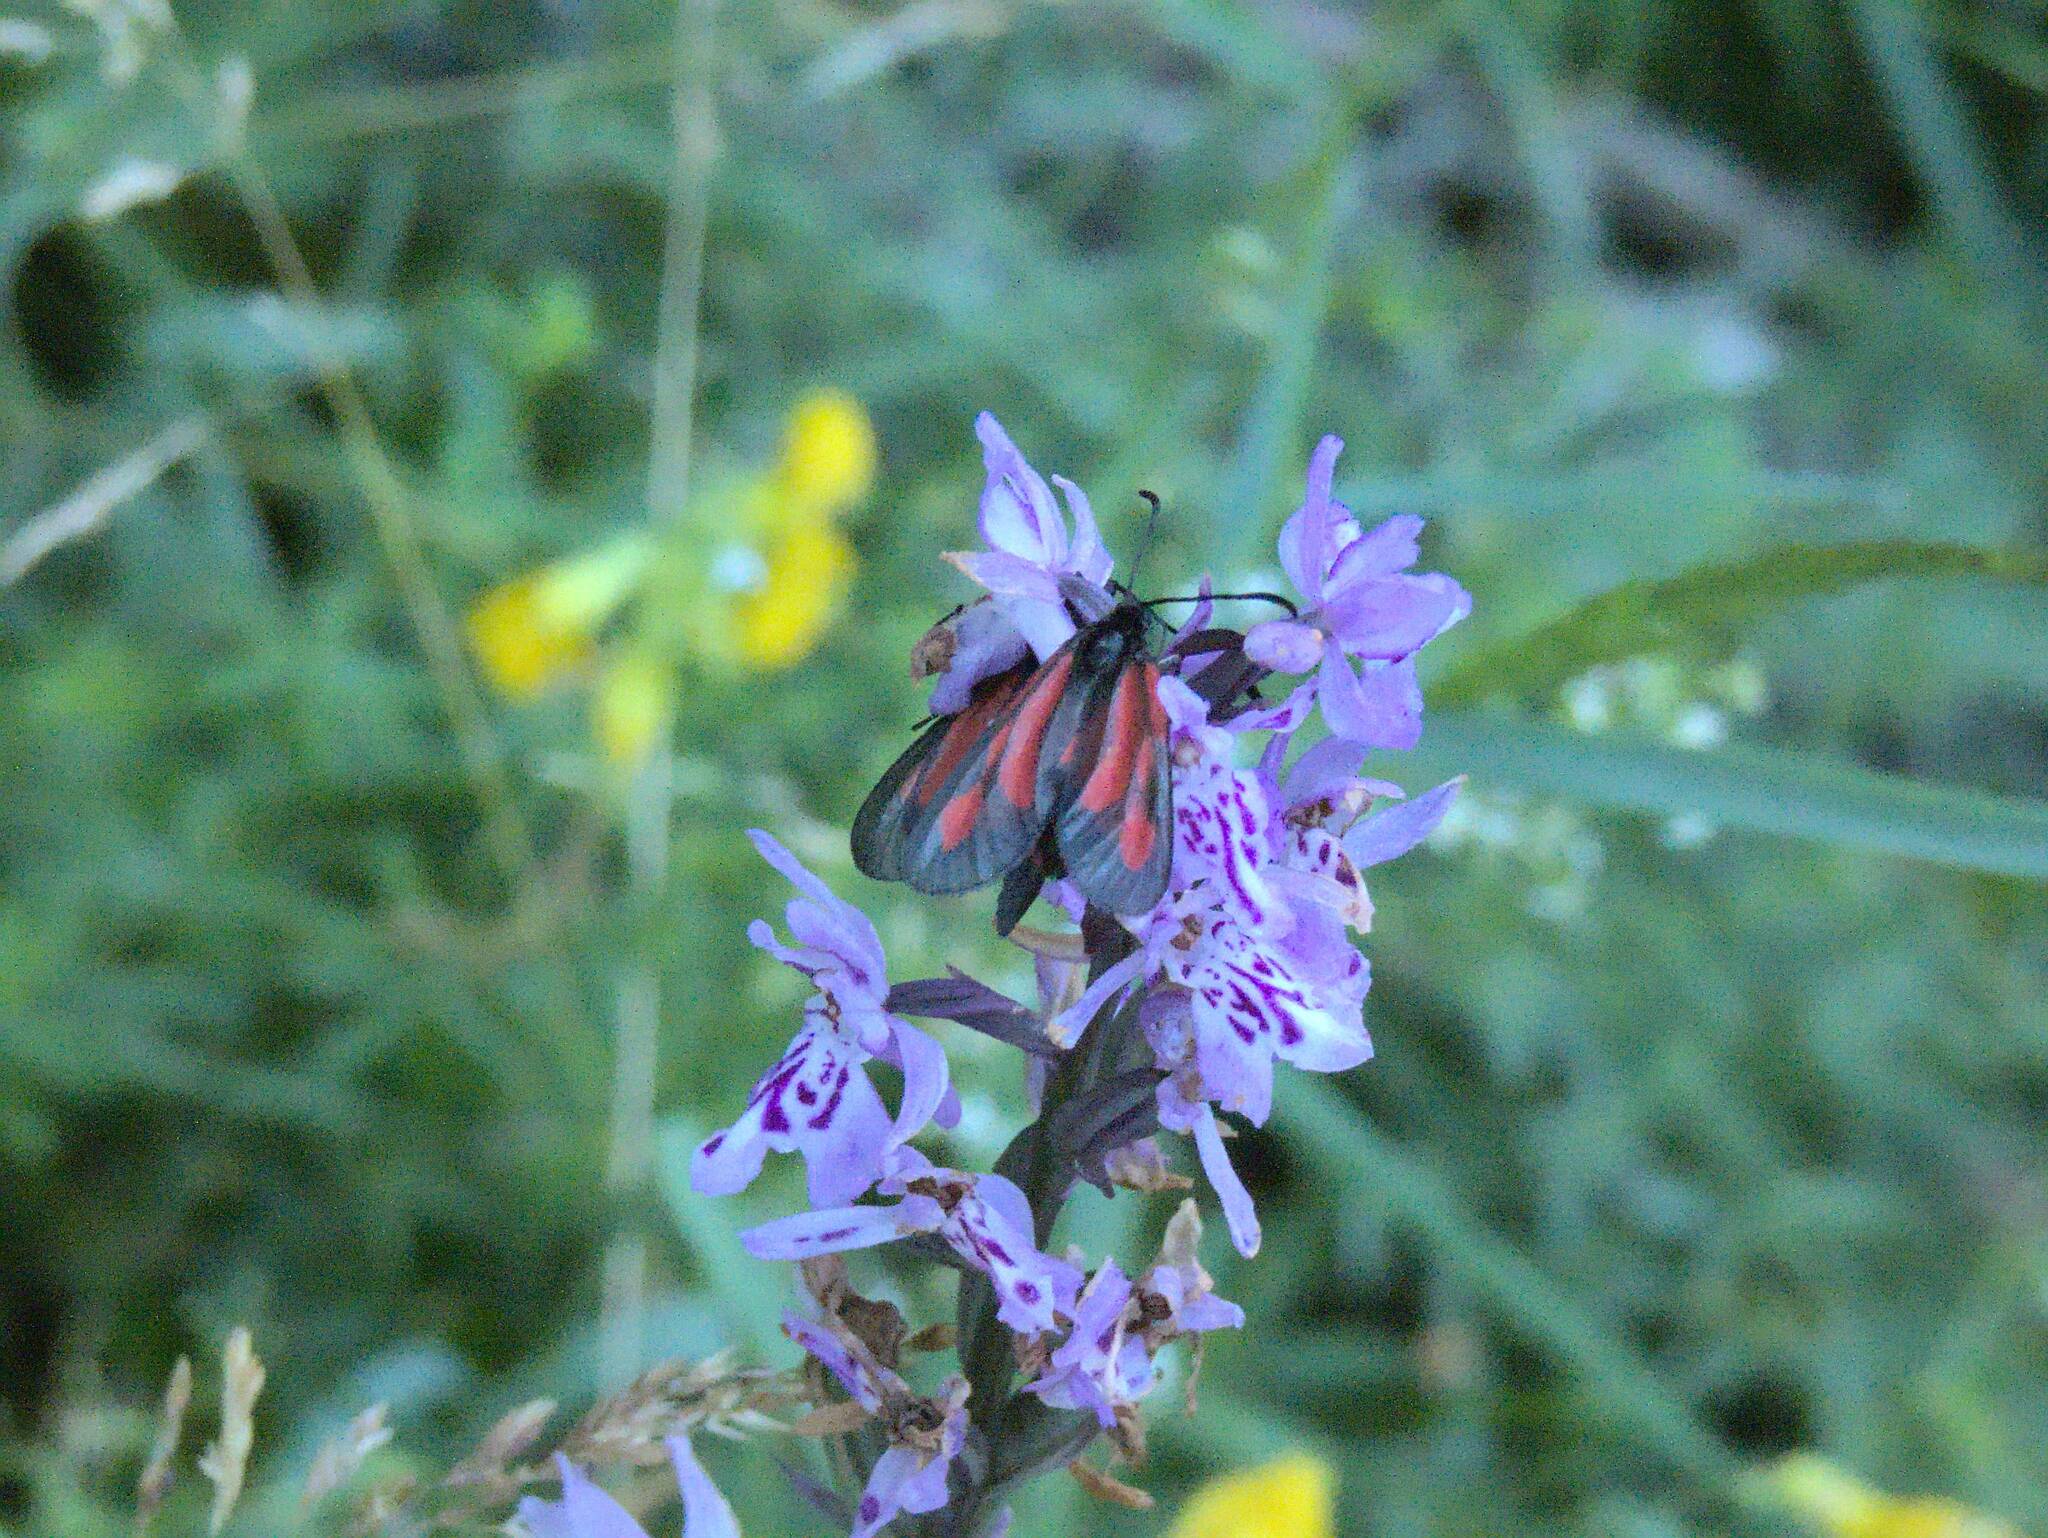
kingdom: Animalia
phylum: Arthropoda
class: Insecta
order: Lepidoptera
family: Zygaenidae
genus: Zygaena
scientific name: Zygaena romeo
